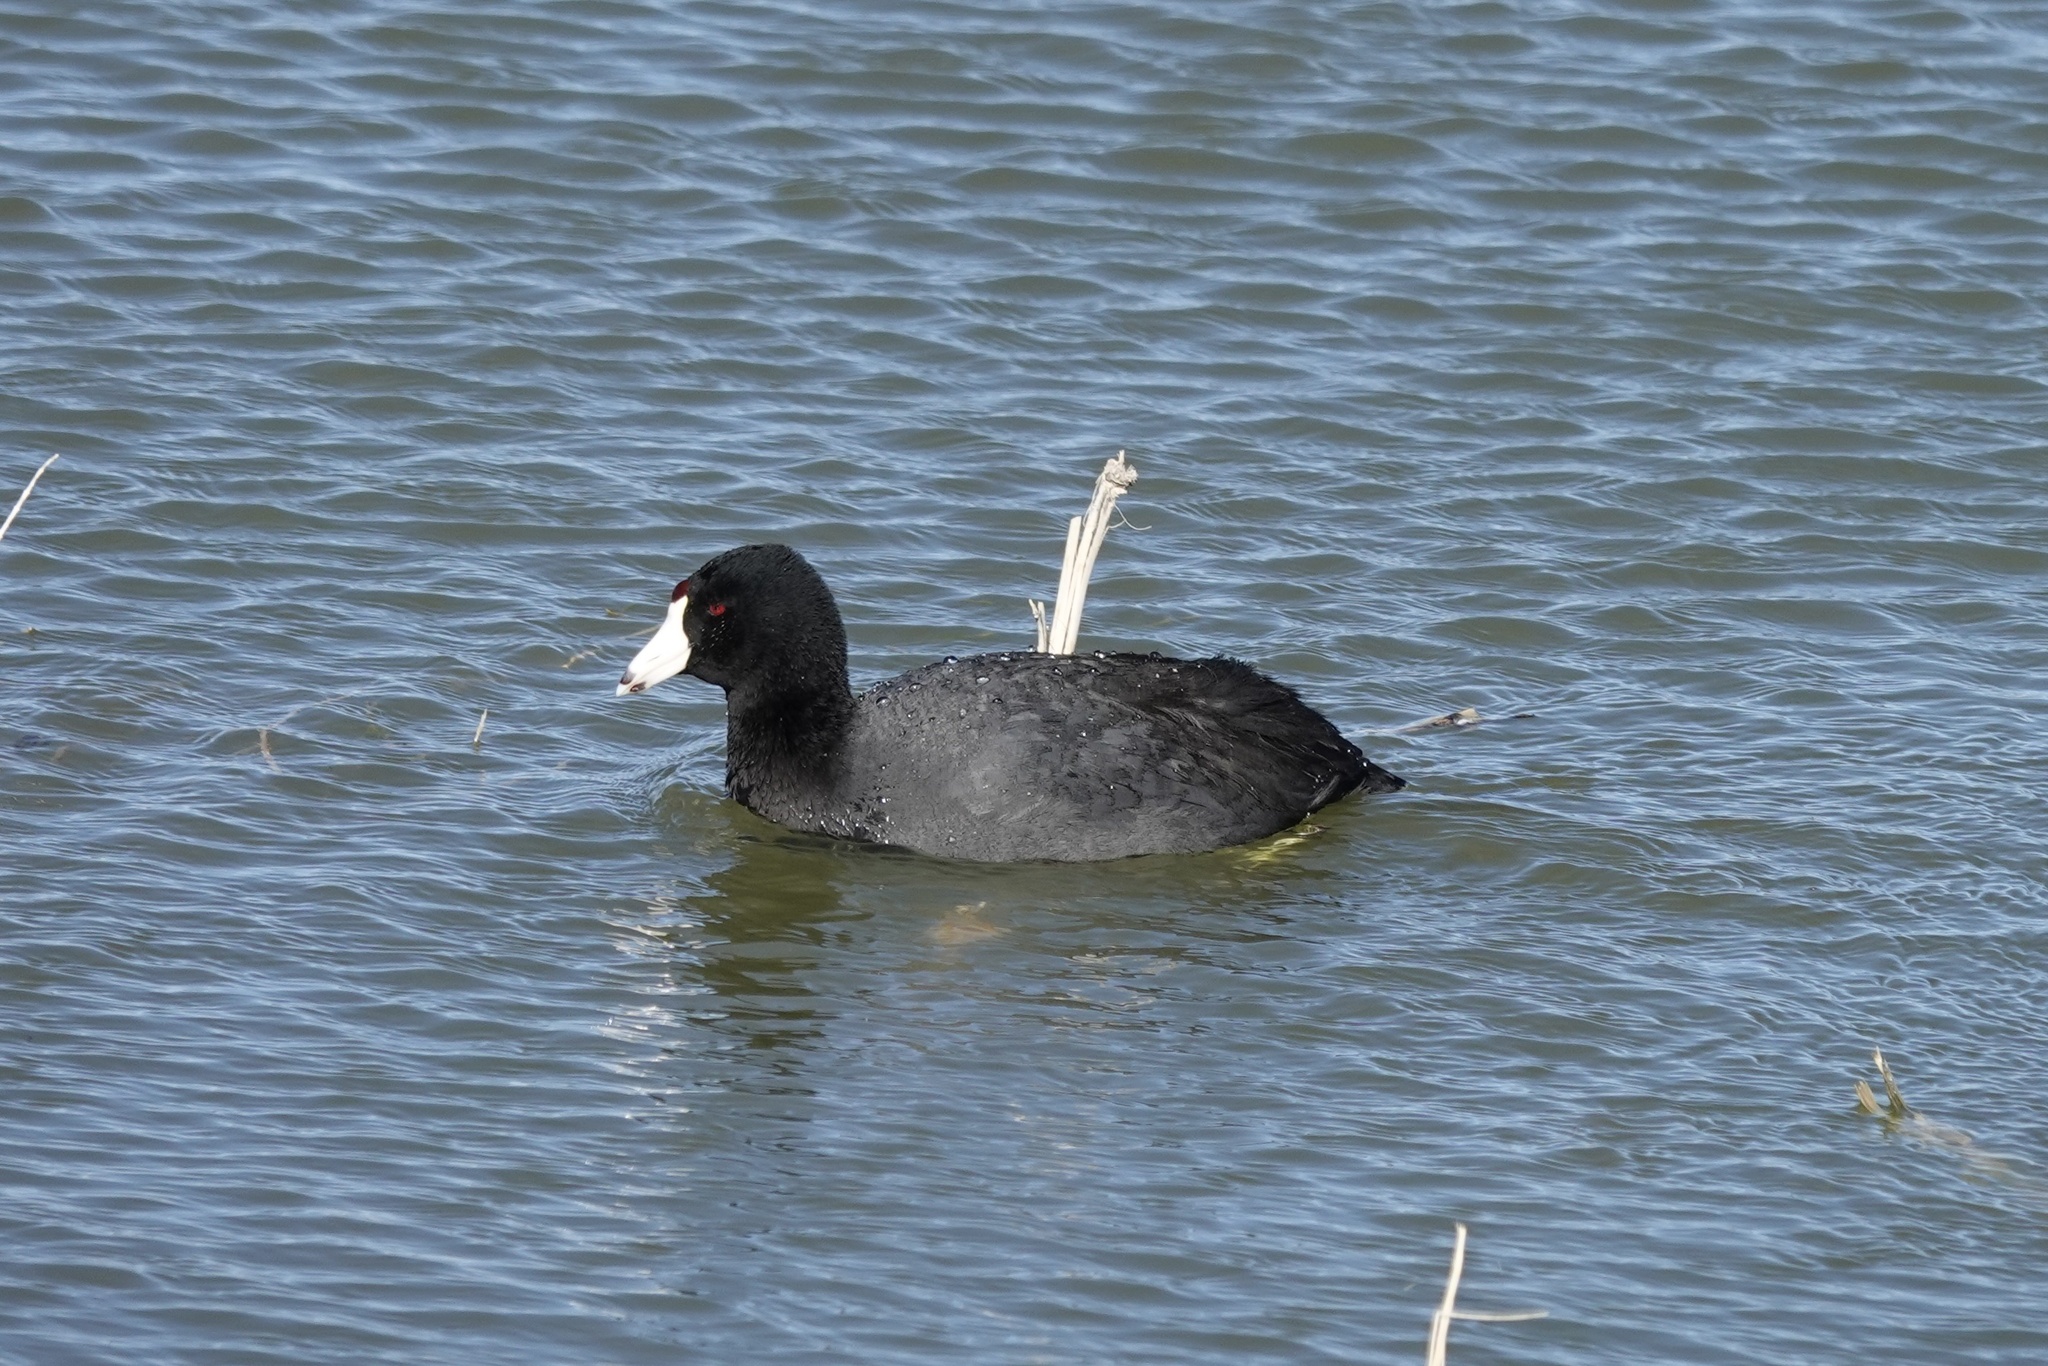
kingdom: Animalia
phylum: Chordata
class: Aves
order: Gruiformes
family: Rallidae
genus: Fulica
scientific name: Fulica americana
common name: American coot
